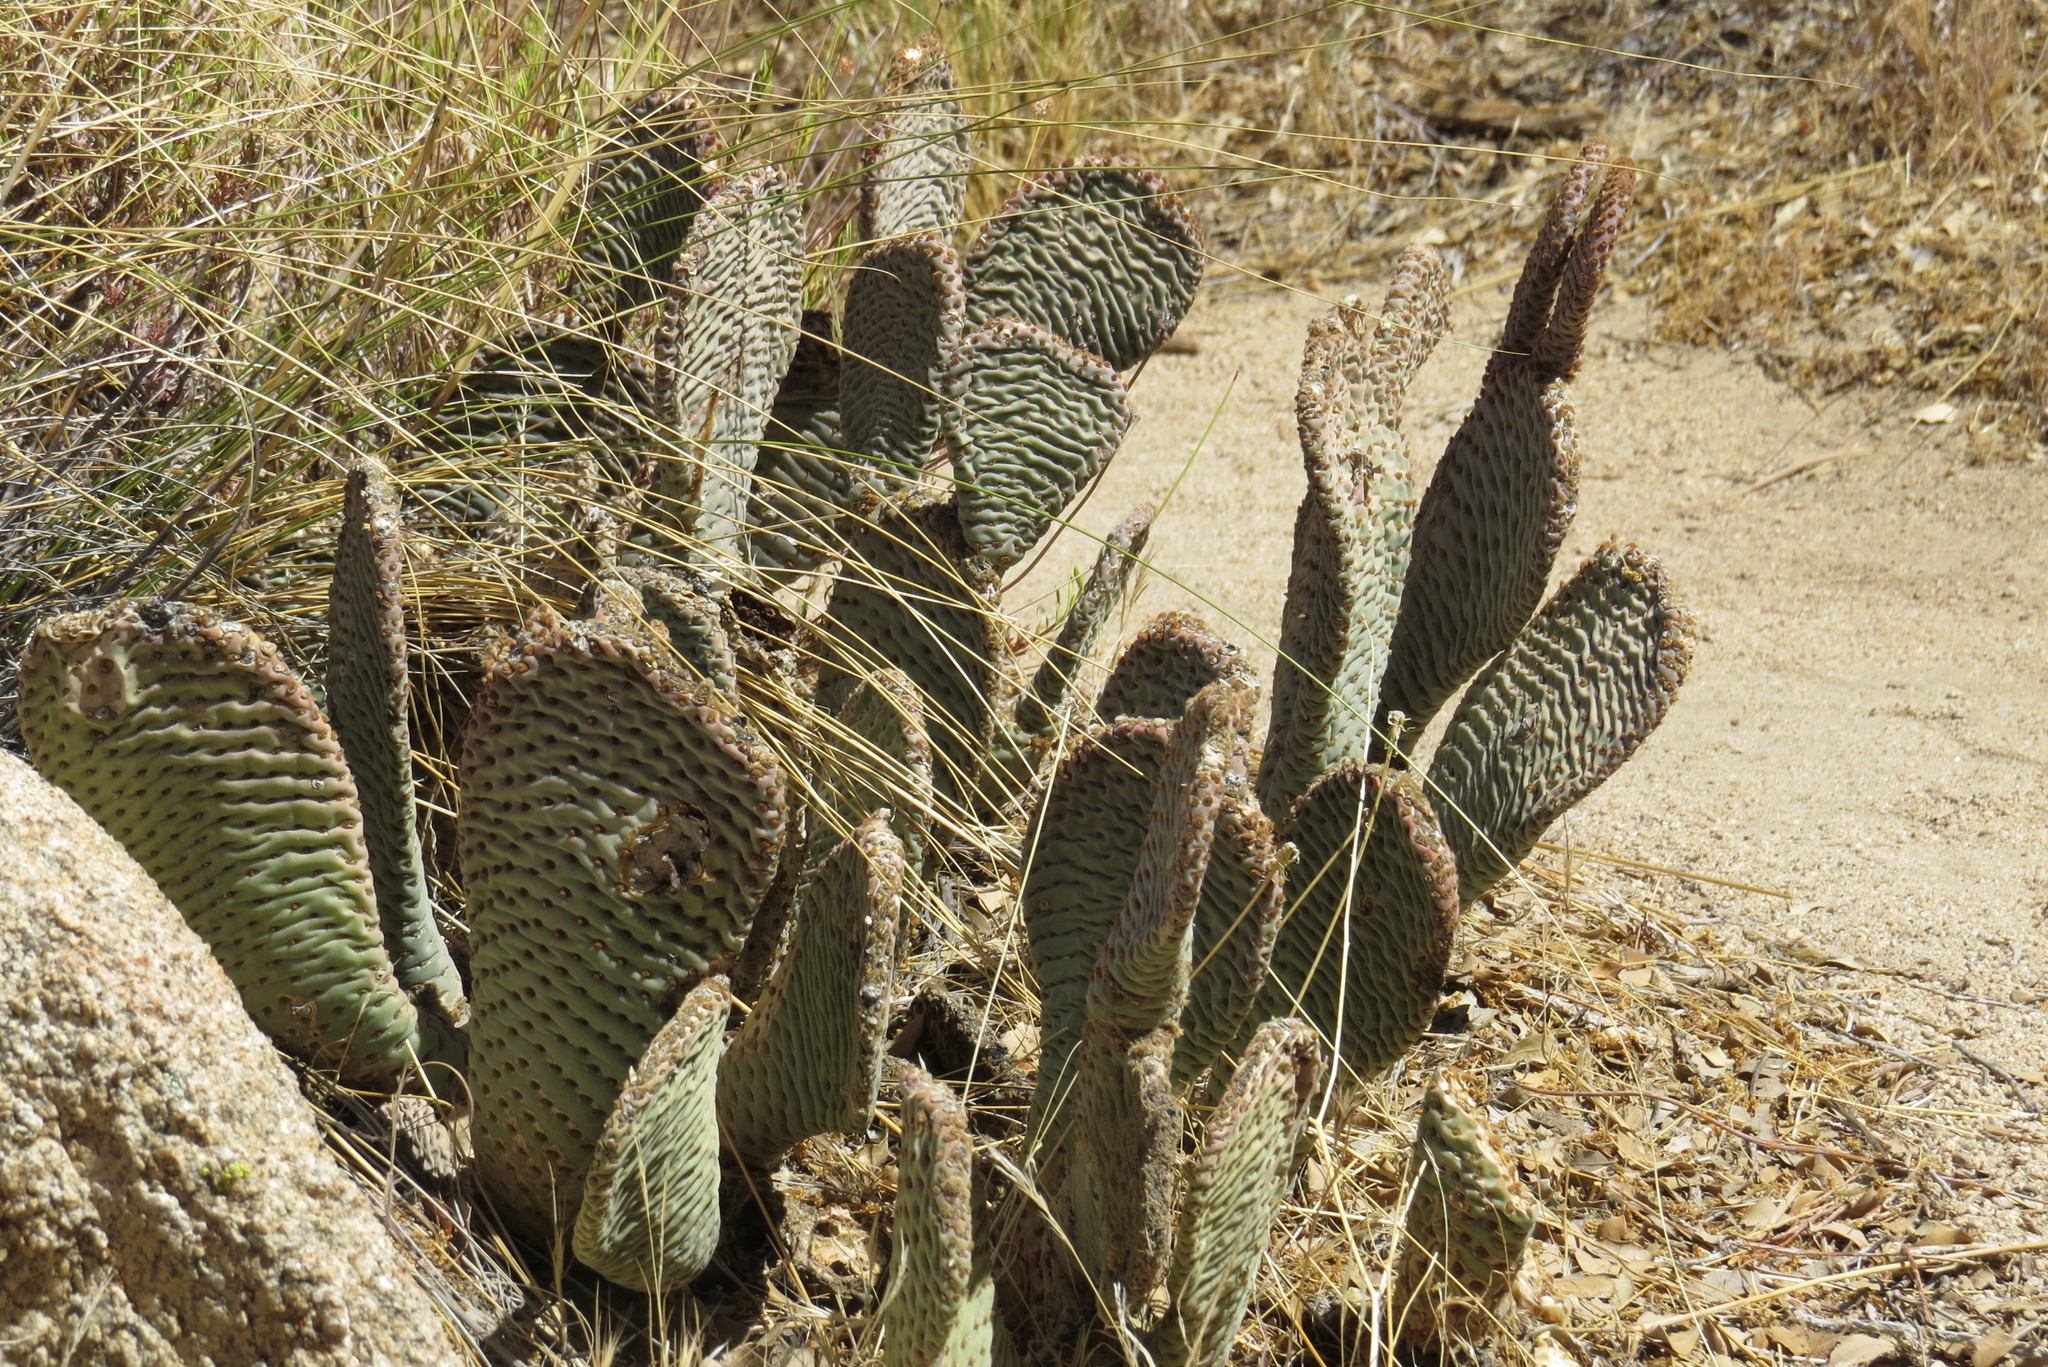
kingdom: Plantae
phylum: Tracheophyta
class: Magnoliopsida
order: Caryophyllales
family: Cactaceae
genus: Opuntia
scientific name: Opuntia basilaris
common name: Beavertail prickly-pear
